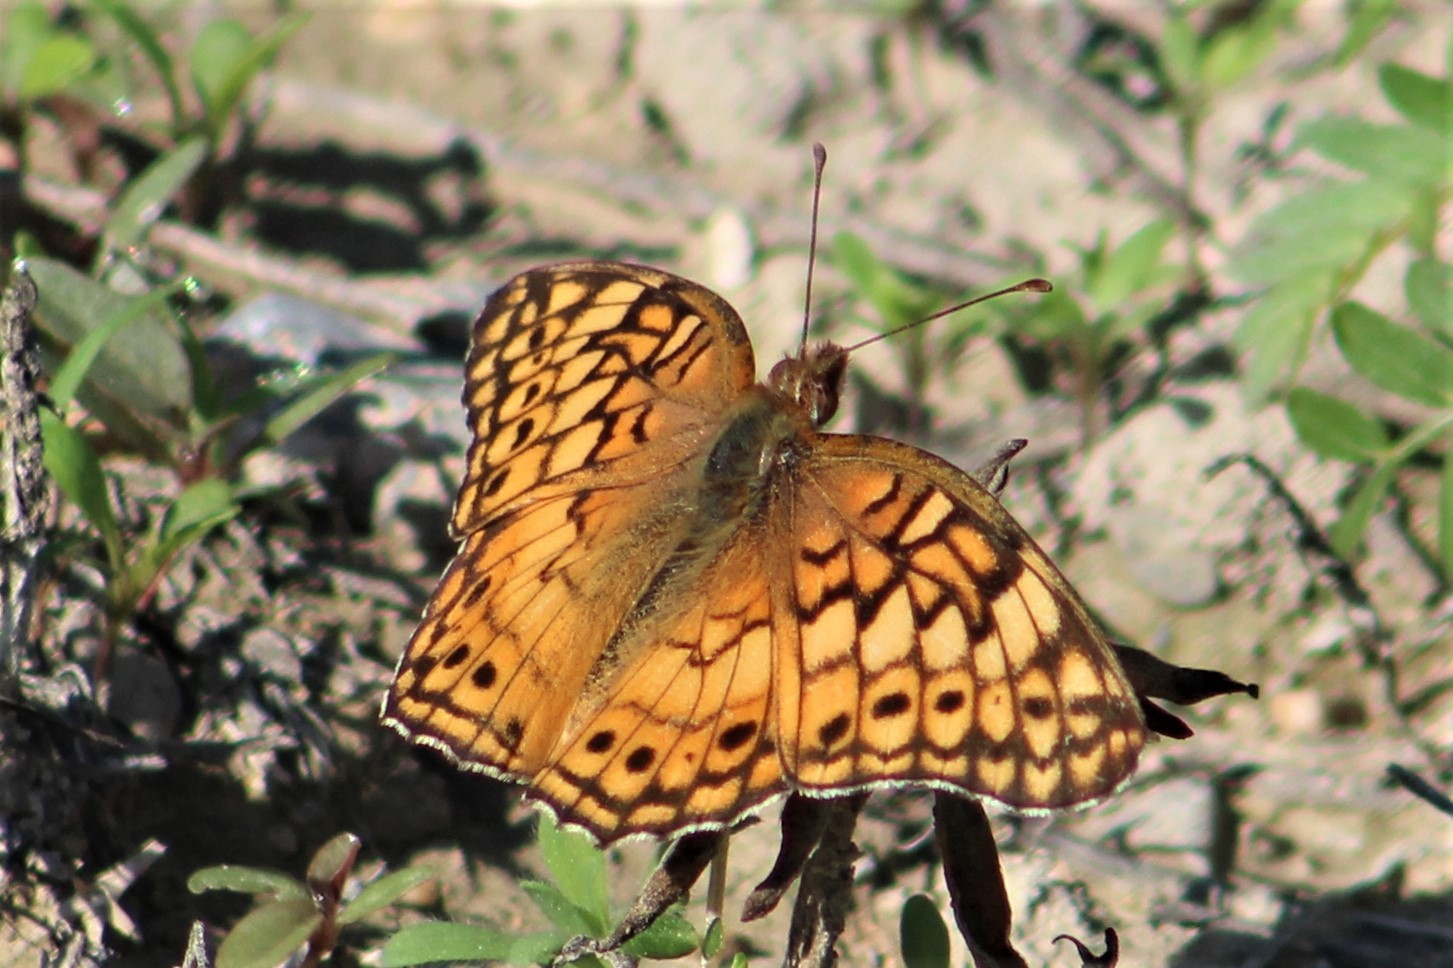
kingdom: Animalia
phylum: Arthropoda
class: Insecta
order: Lepidoptera
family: Nymphalidae
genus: Euptoieta
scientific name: Euptoieta claudia
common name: Variegated fritillary
